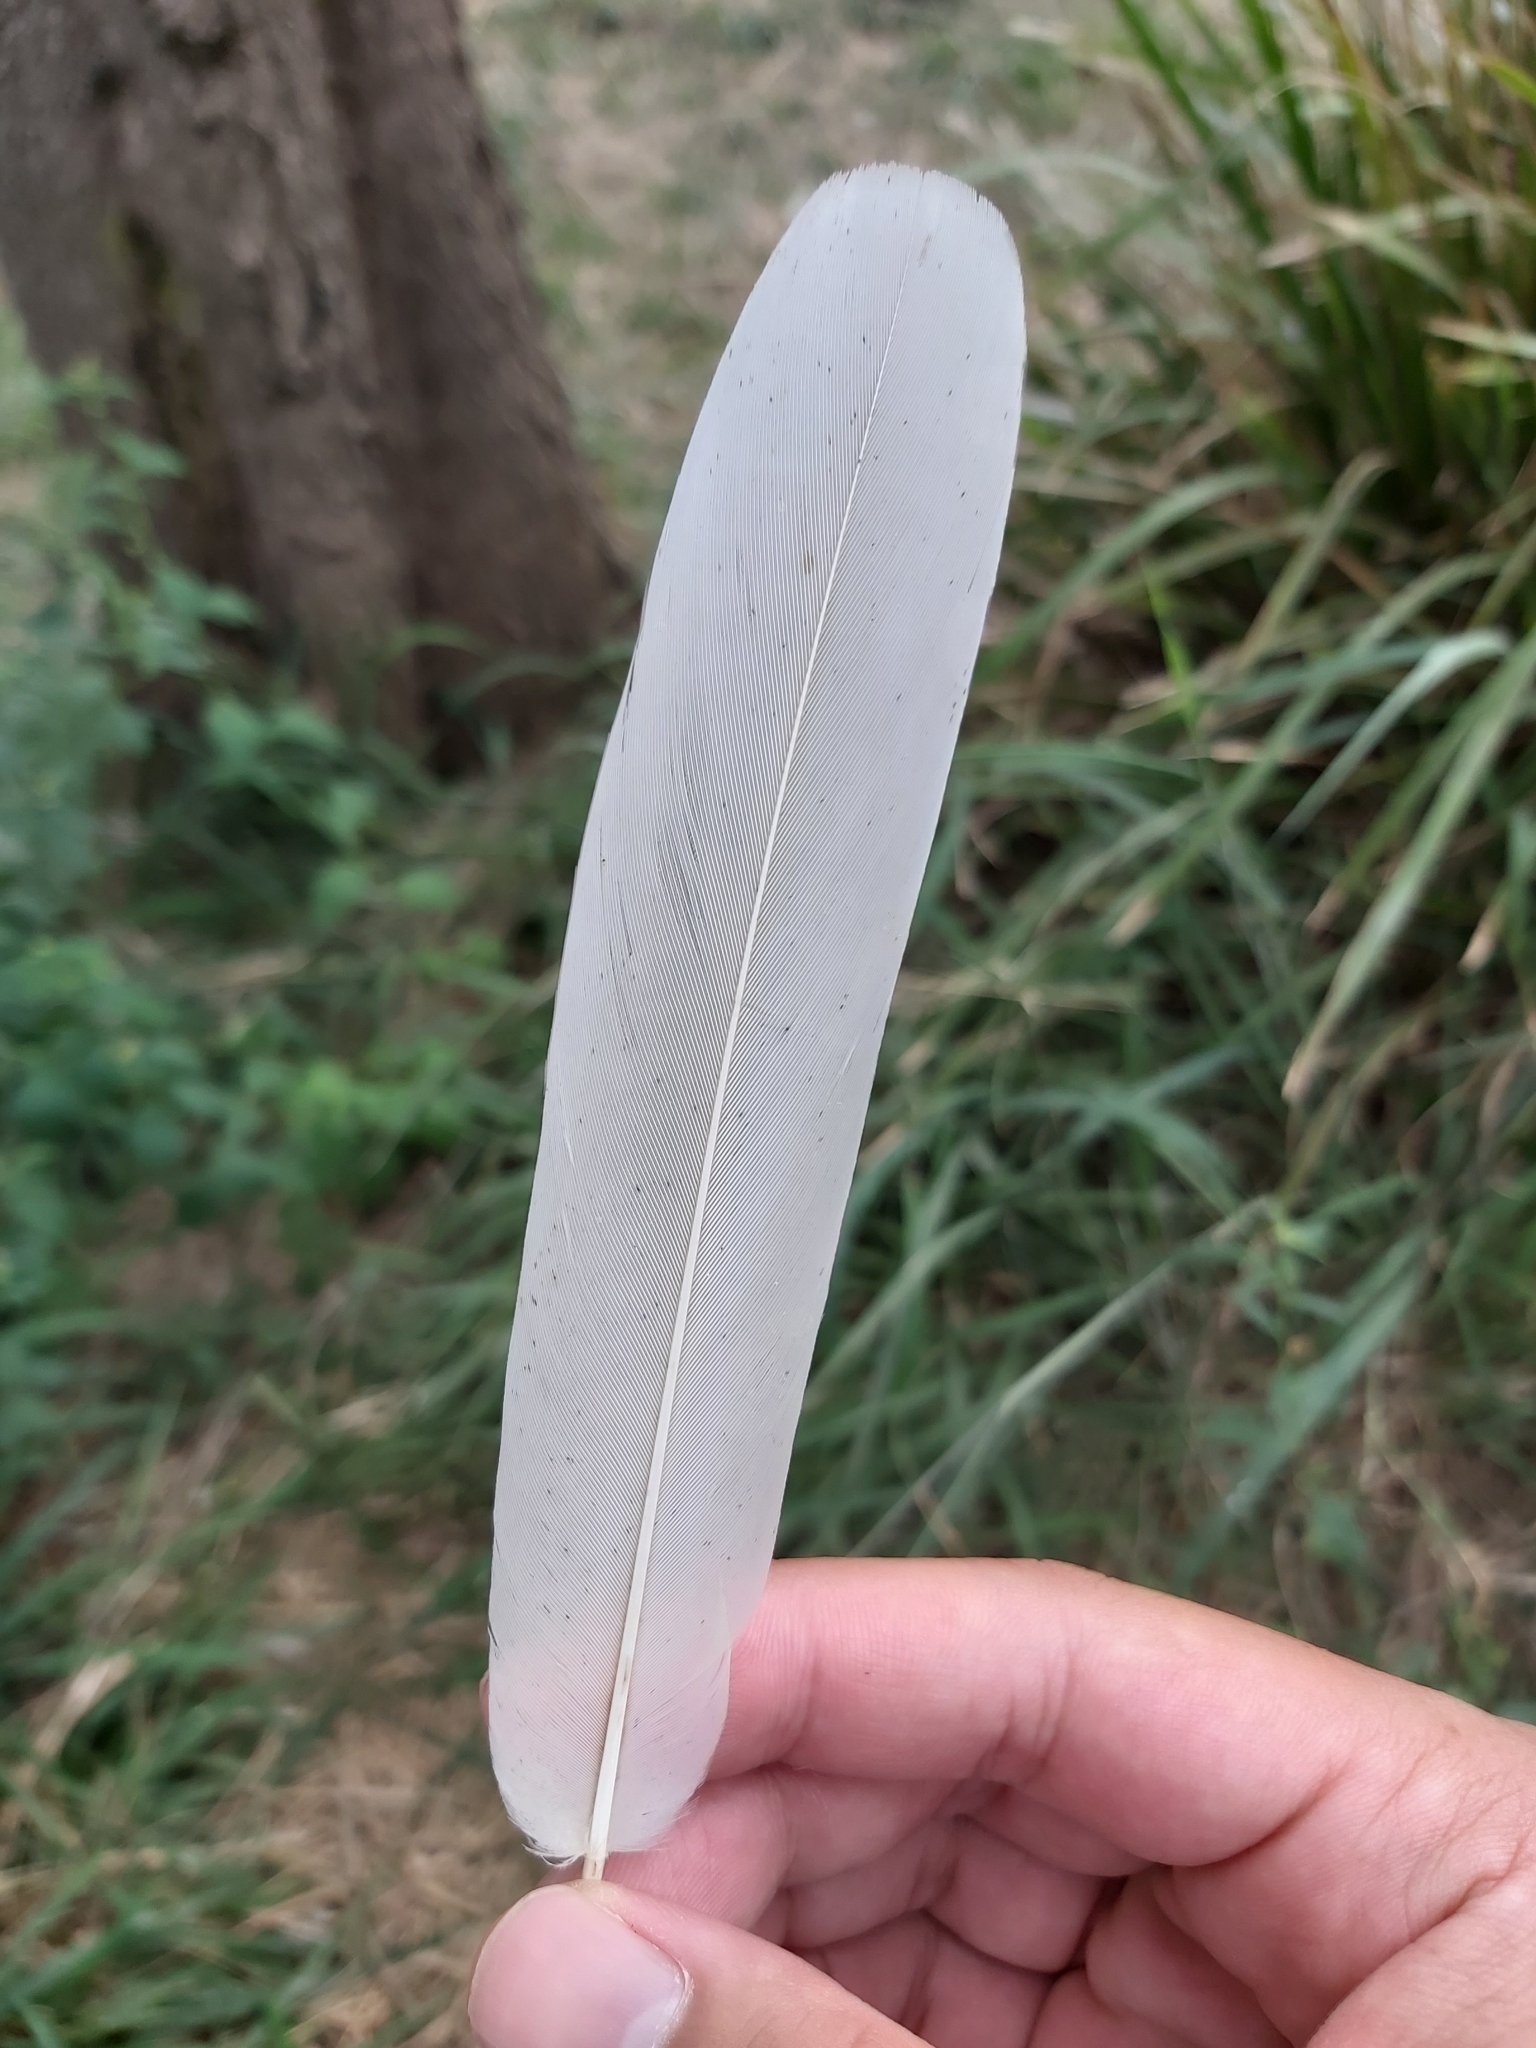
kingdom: Animalia
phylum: Chordata
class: Aves
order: Pelecaniformes
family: Threskiornithidae
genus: Threskiornis
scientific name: Threskiornis molucca
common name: Australian white ibis
